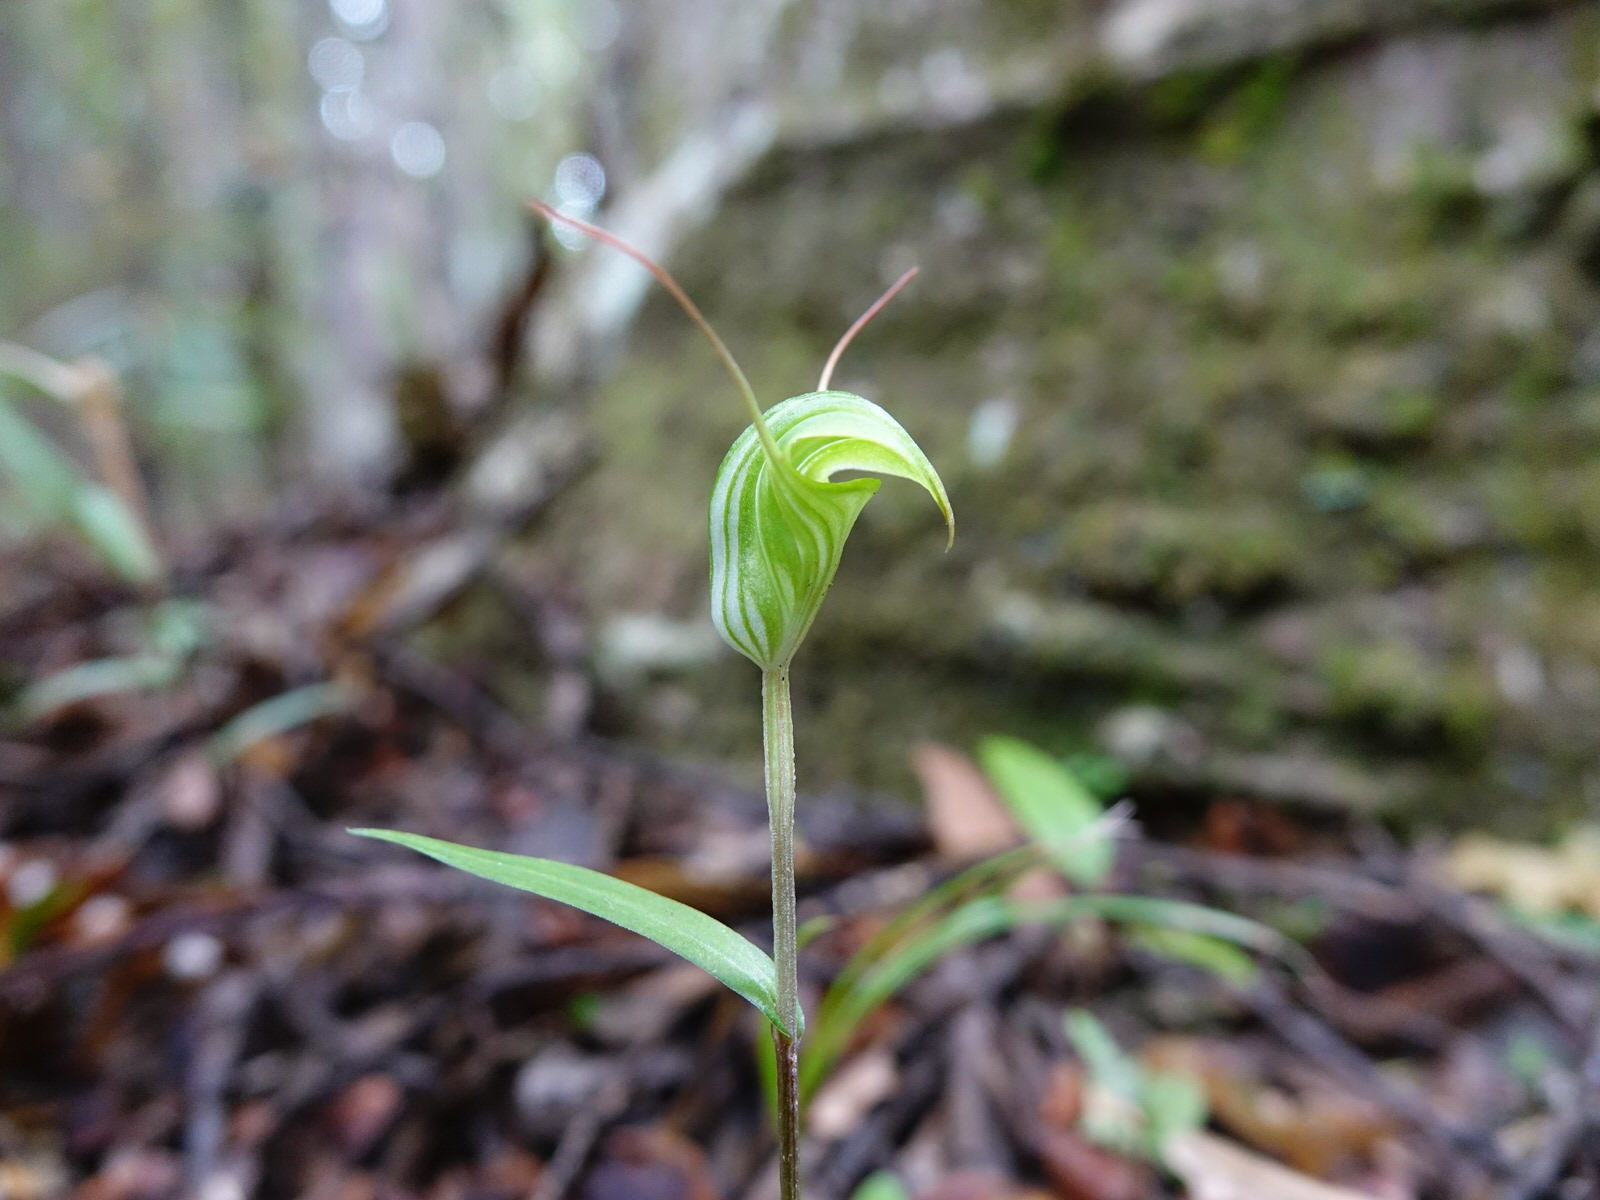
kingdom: Plantae
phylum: Tracheophyta
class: Liliopsida
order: Asparagales
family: Orchidaceae
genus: Pterostylis
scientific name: Pterostylis brumalis
